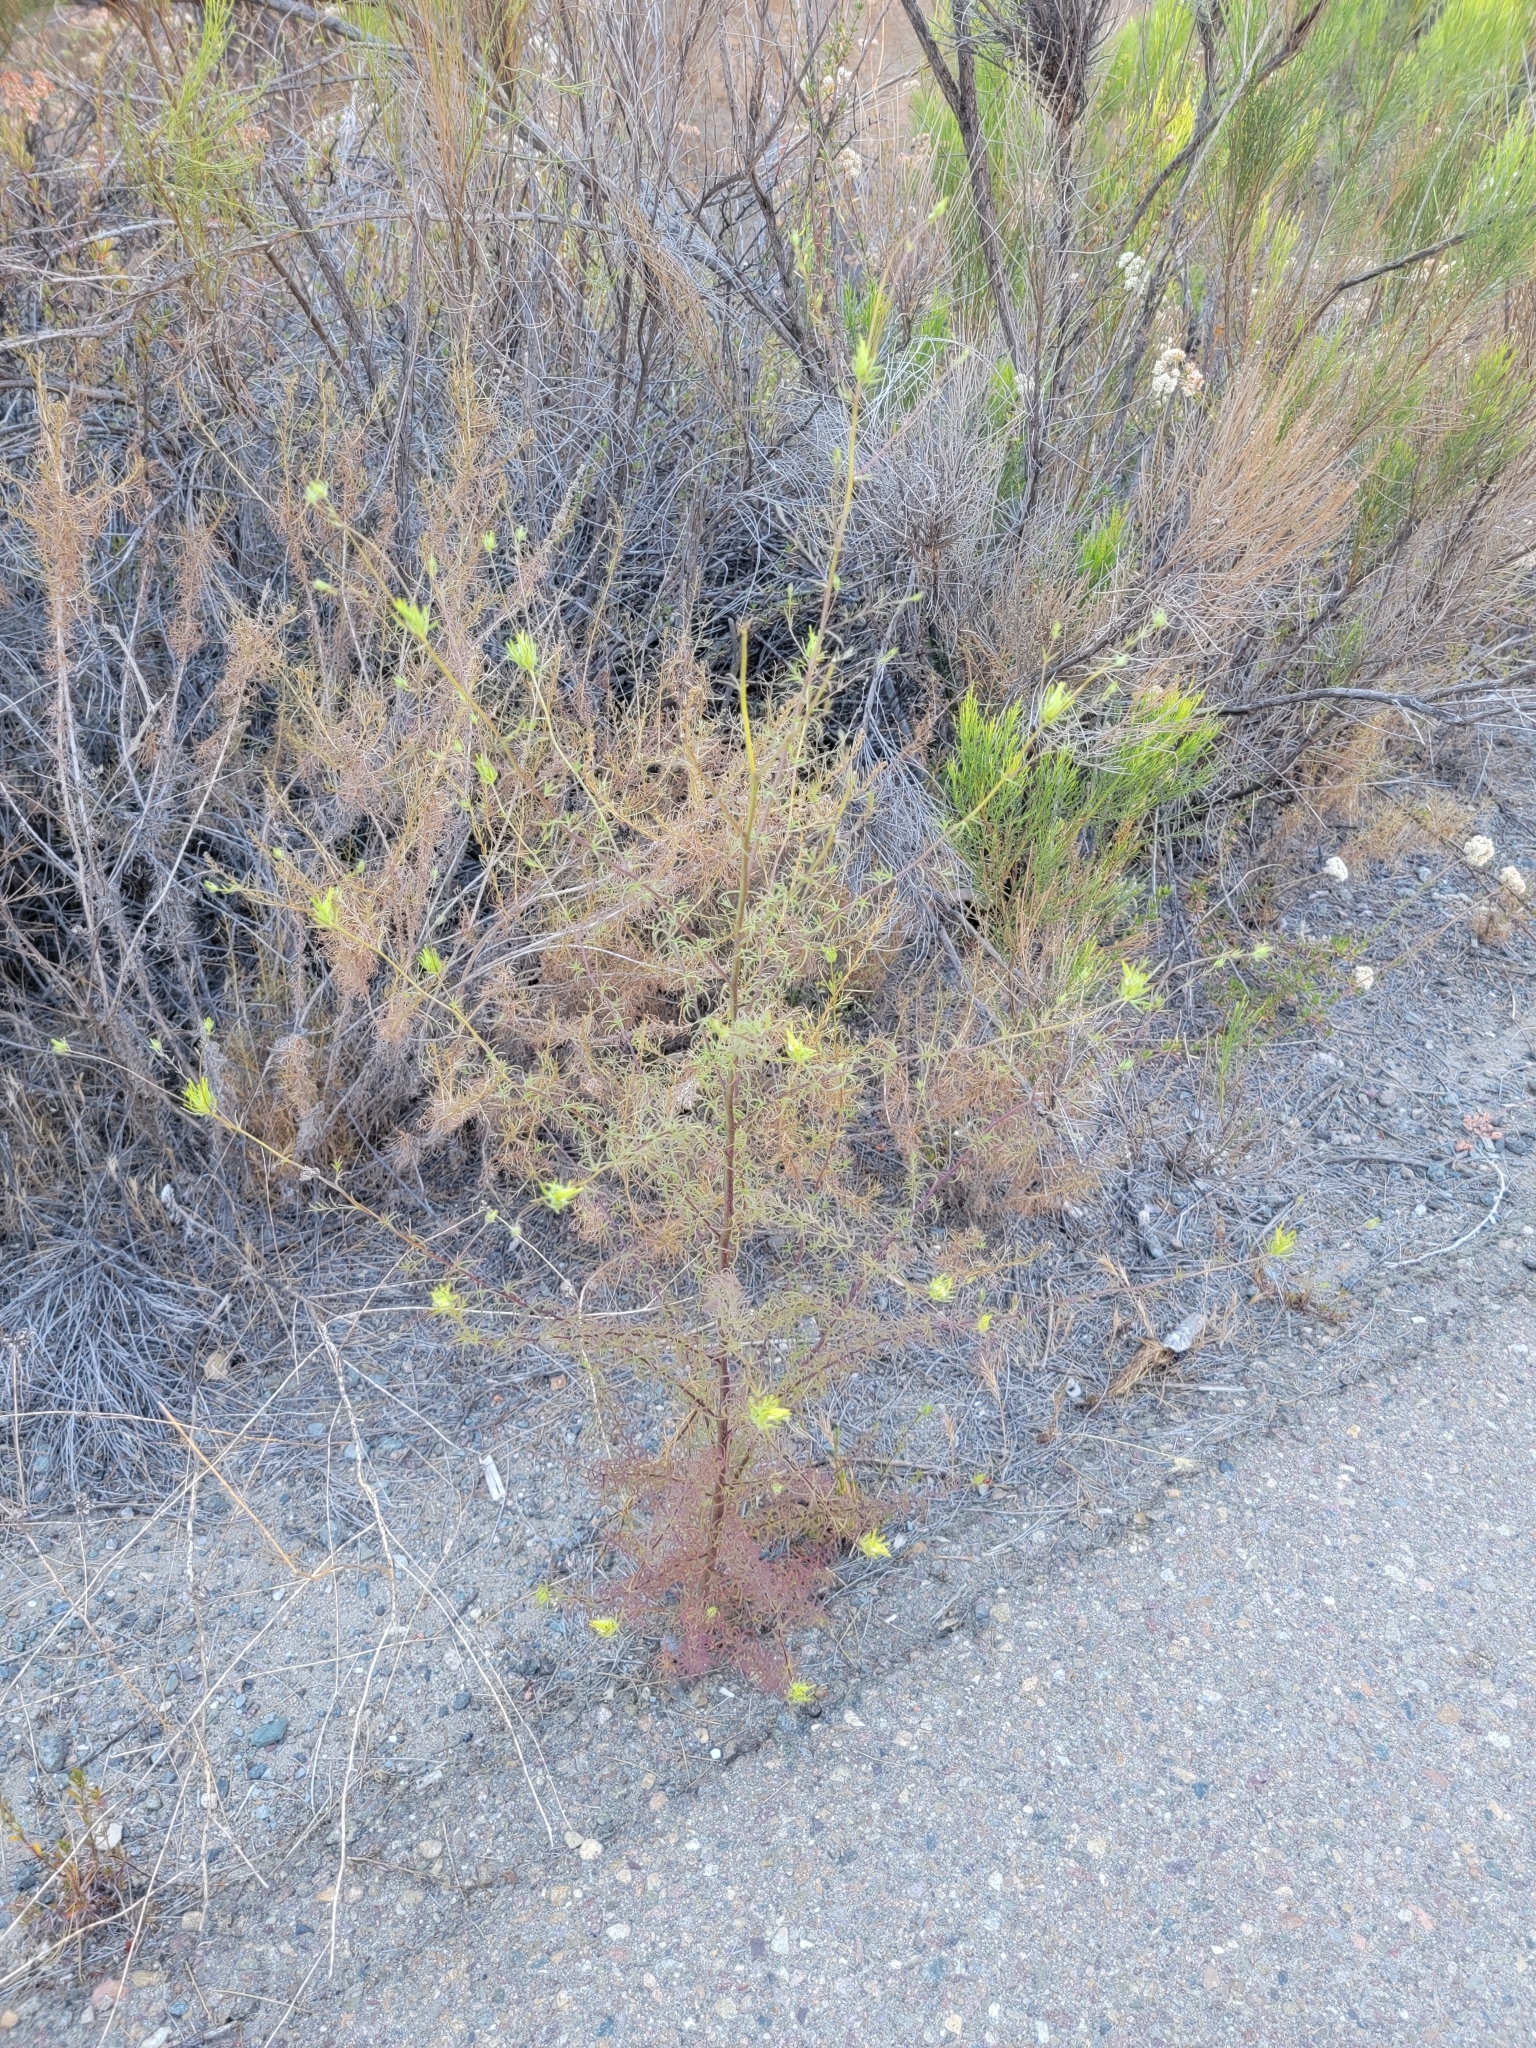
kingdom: Plantae
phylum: Tracheophyta
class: Magnoliopsida
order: Lamiales
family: Orobanchaceae
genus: Cordylanthus
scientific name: Cordylanthus rigidus
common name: Stiff-branch bird's-beak
